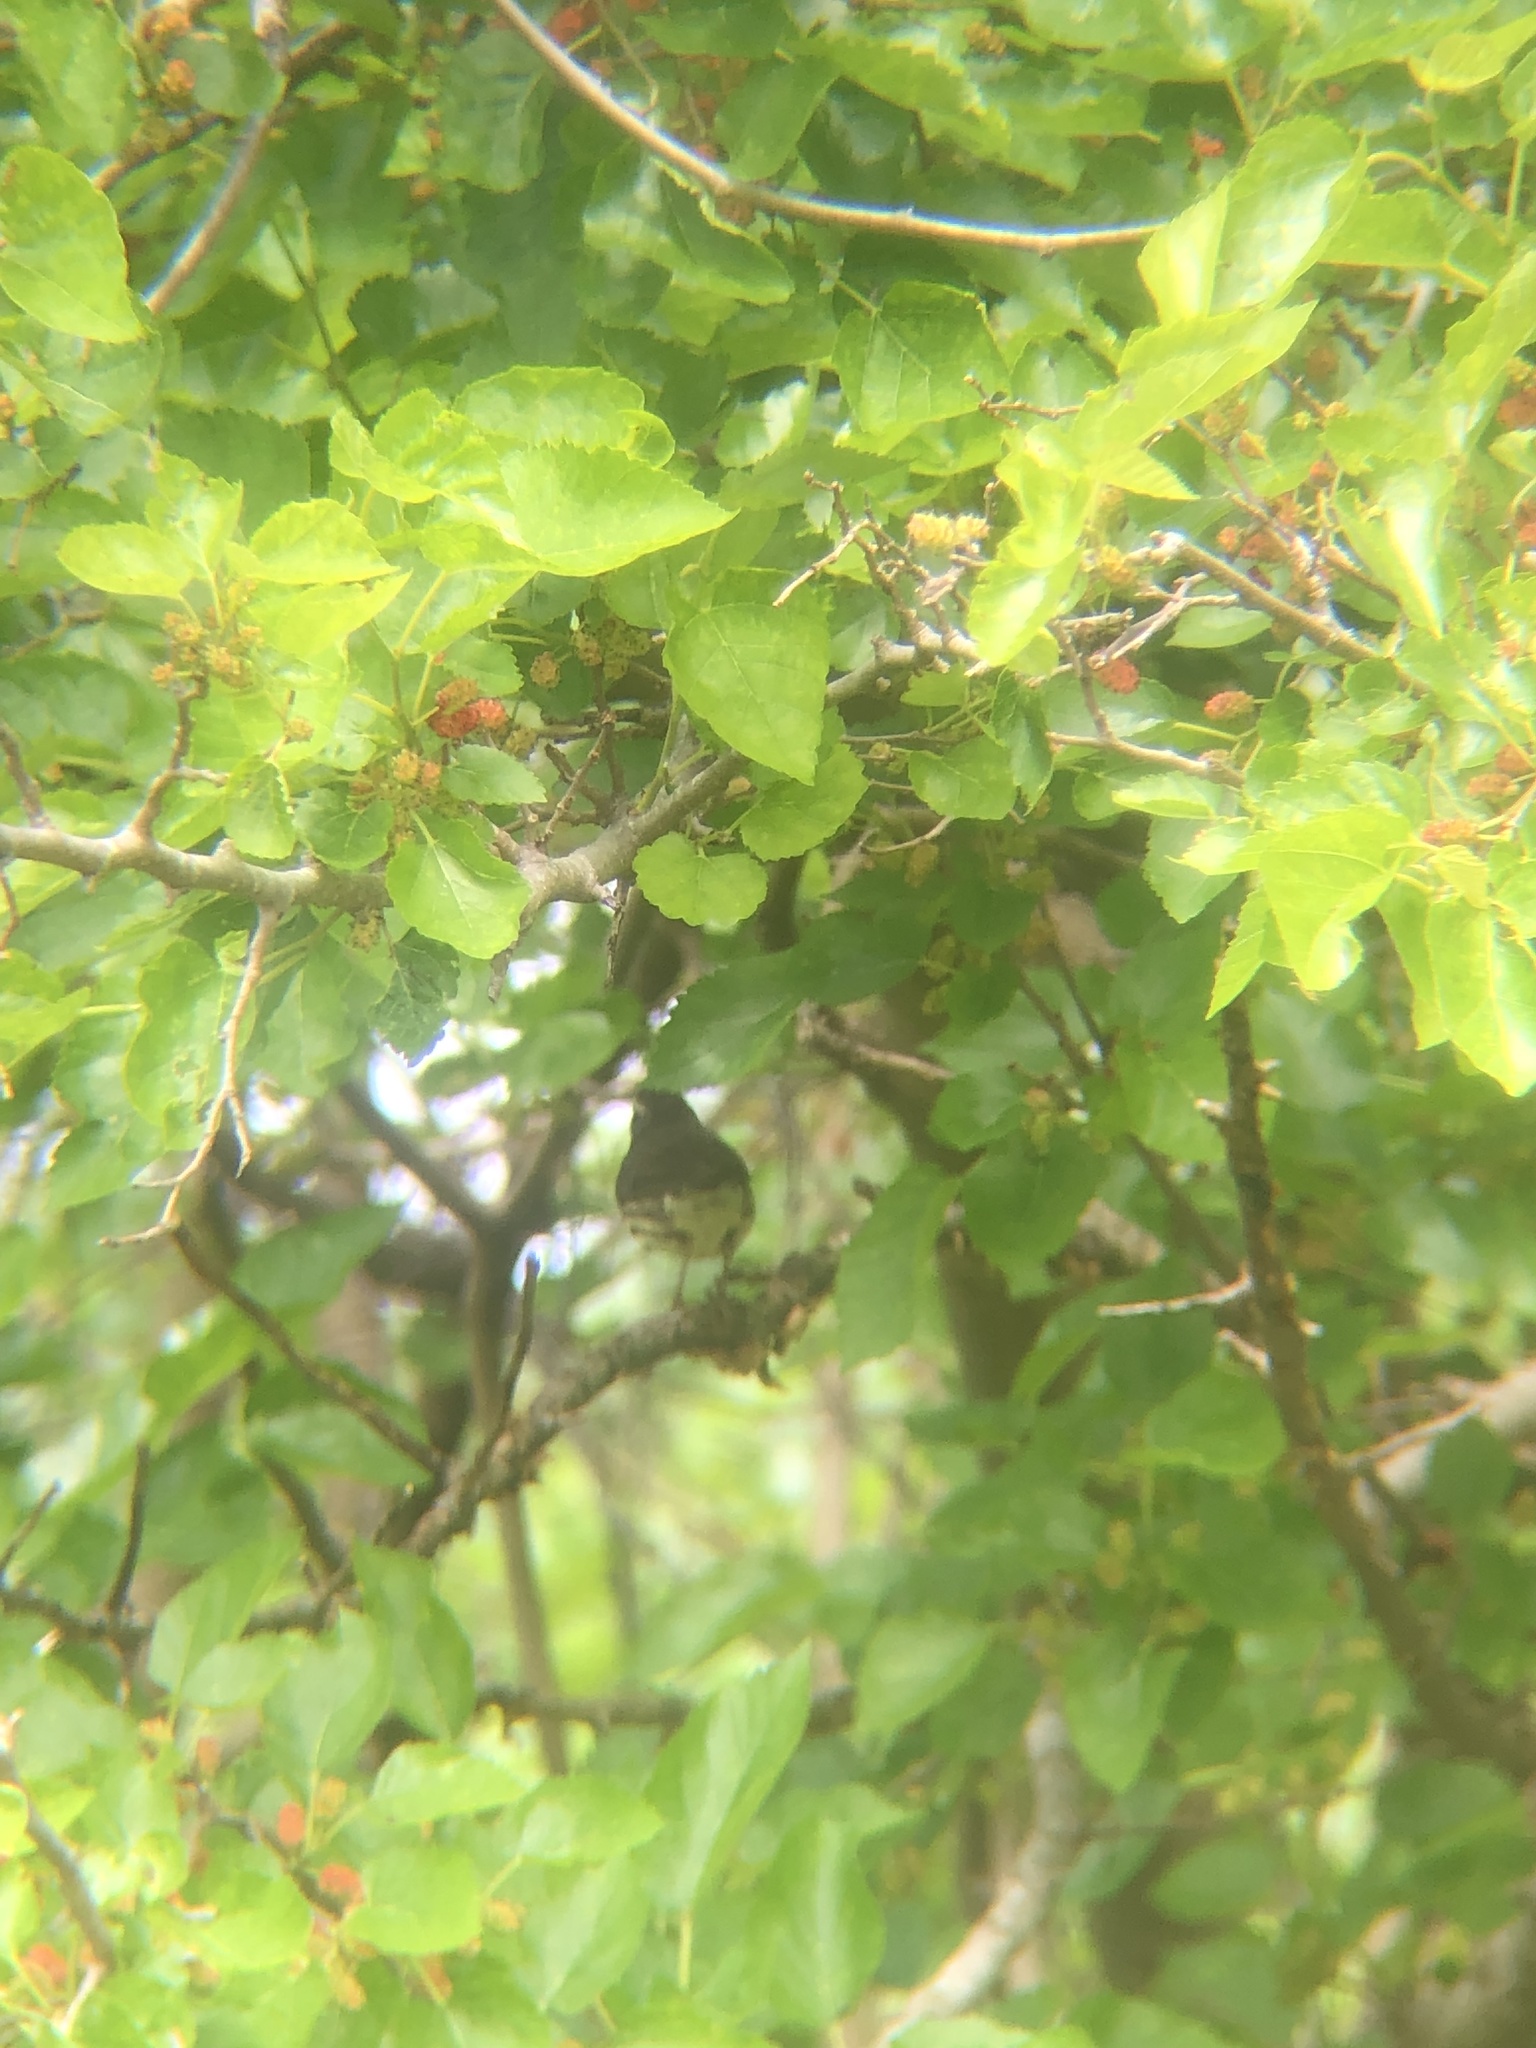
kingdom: Animalia
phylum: Chordata
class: Aves
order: Passeriformes
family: Parulidae
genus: Parkesia
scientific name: Parkesia noveboracensis
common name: Northern waterthrush
